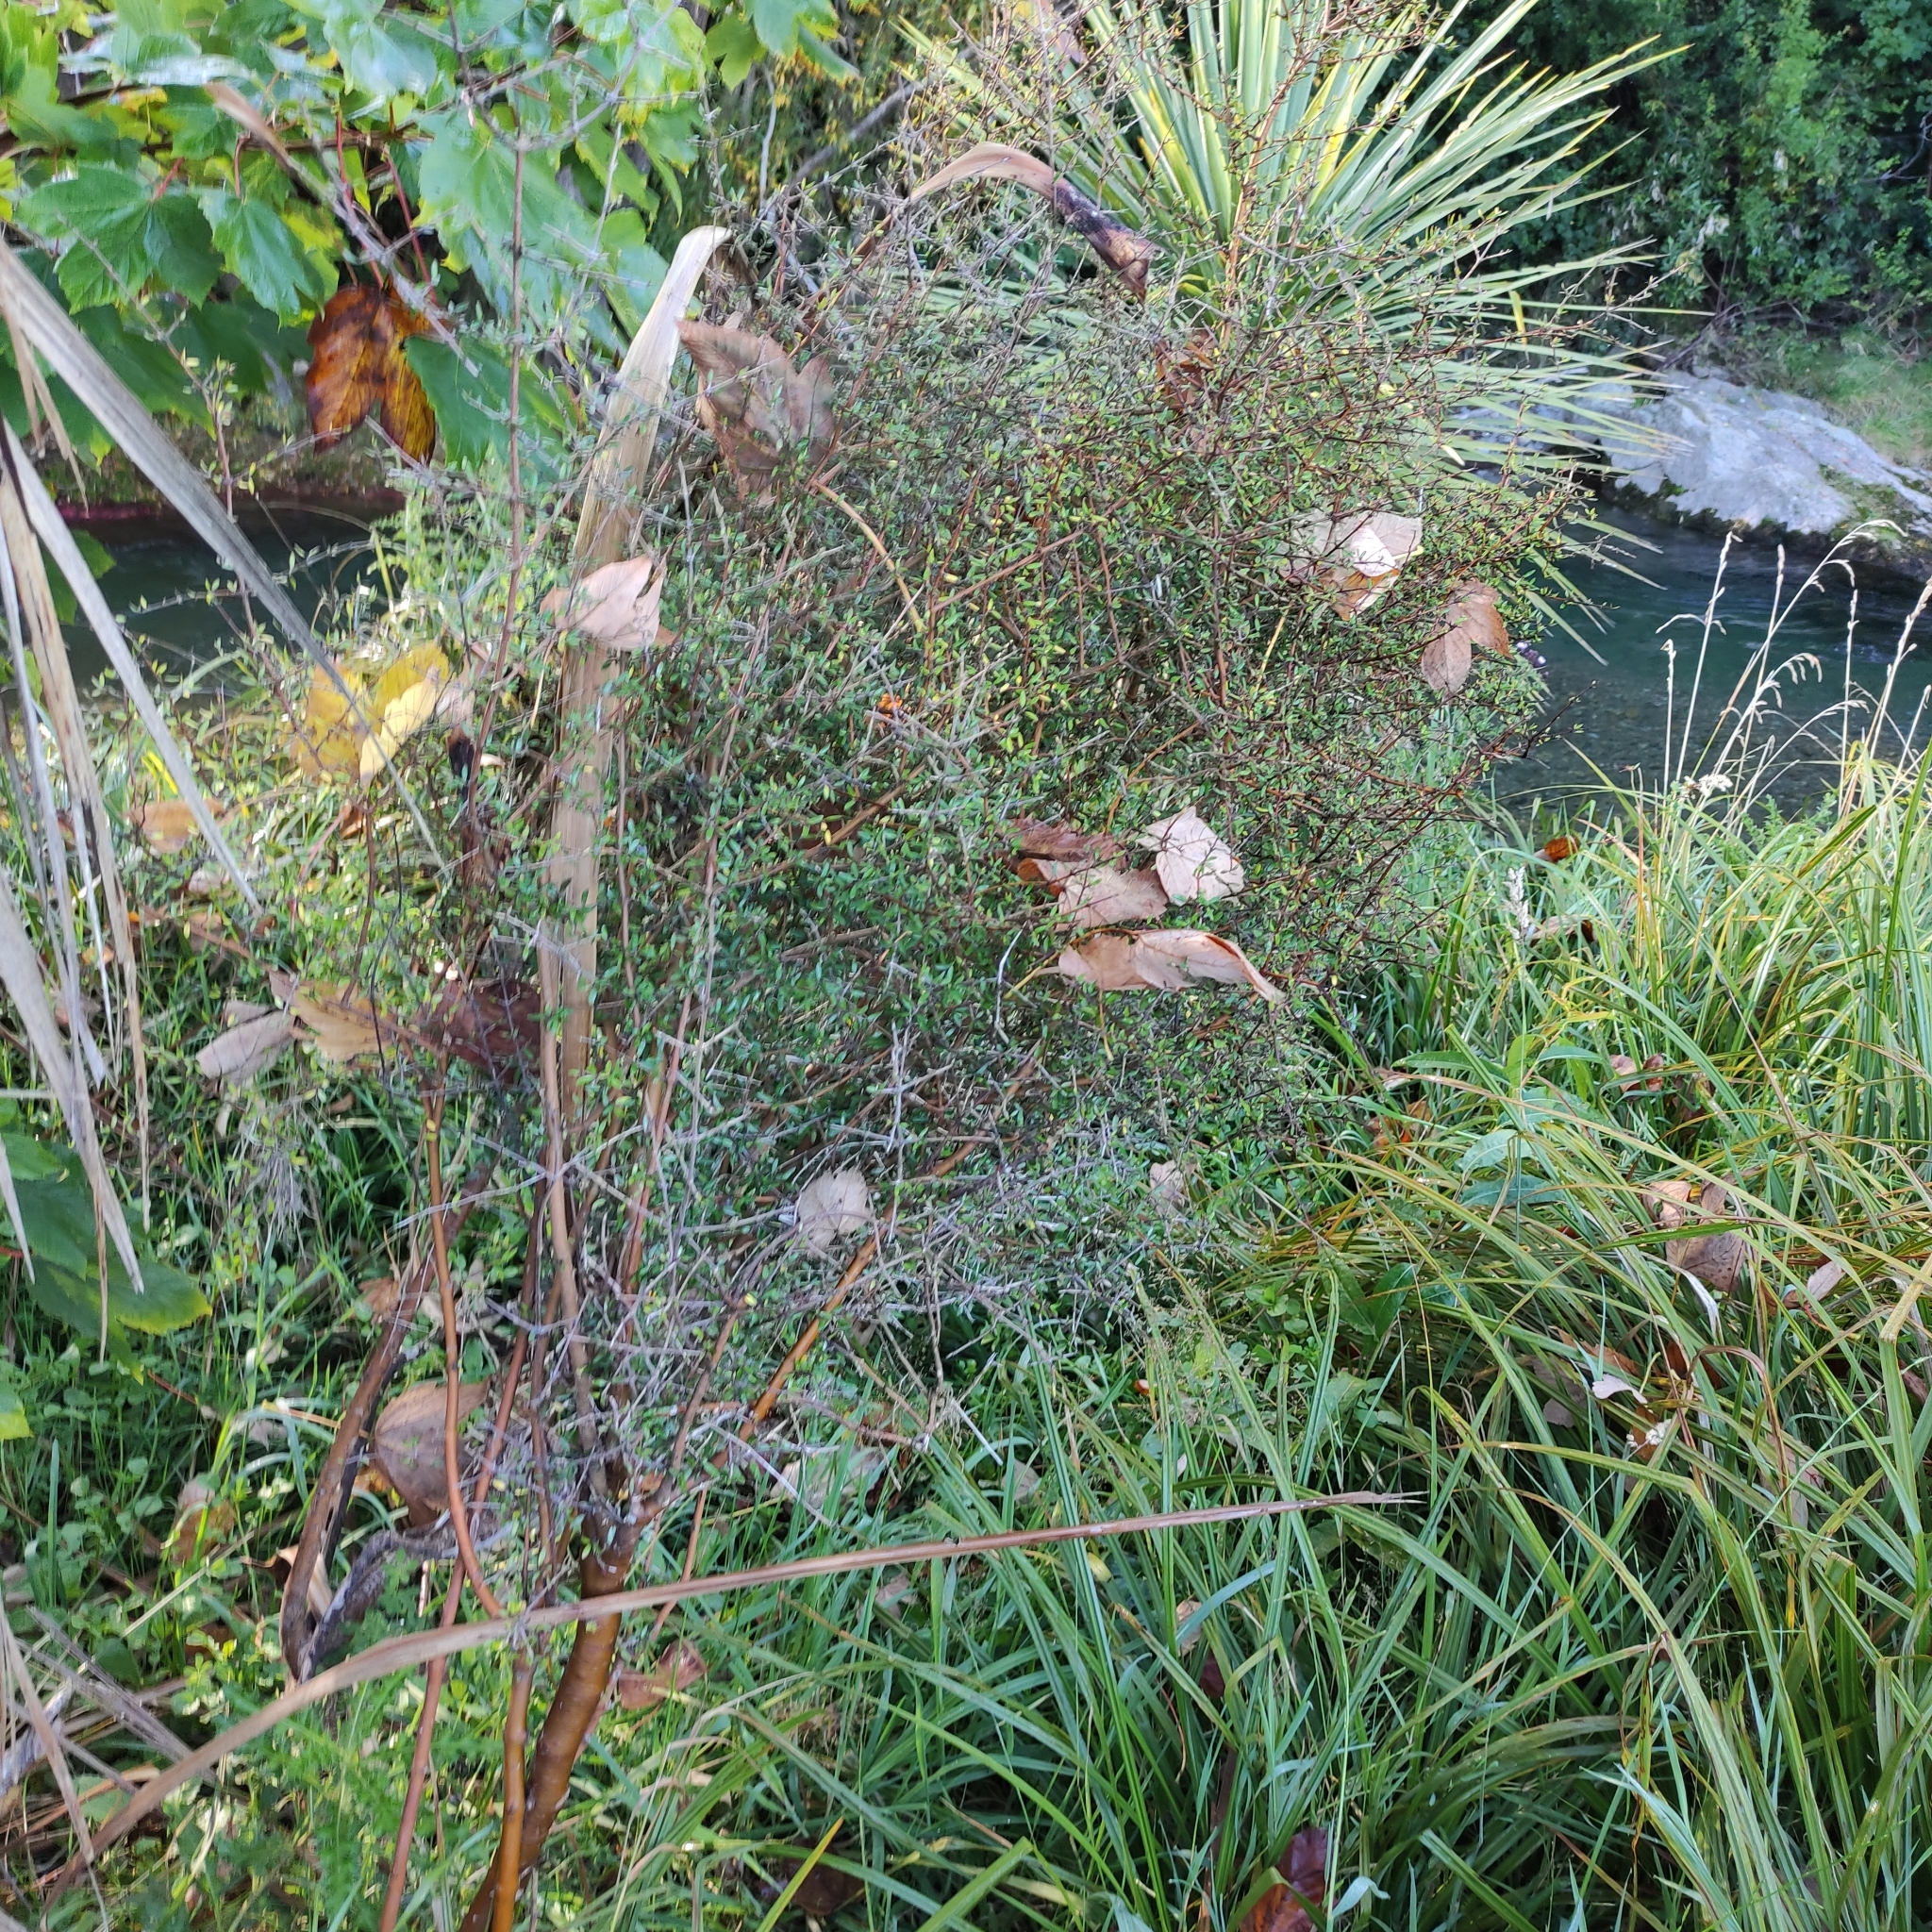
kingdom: Plantae
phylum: Tracheophyta
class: Magnoliopsida
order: Gentianales
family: Rubiaceae
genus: Coprosma
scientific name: Coprosma propinqua
